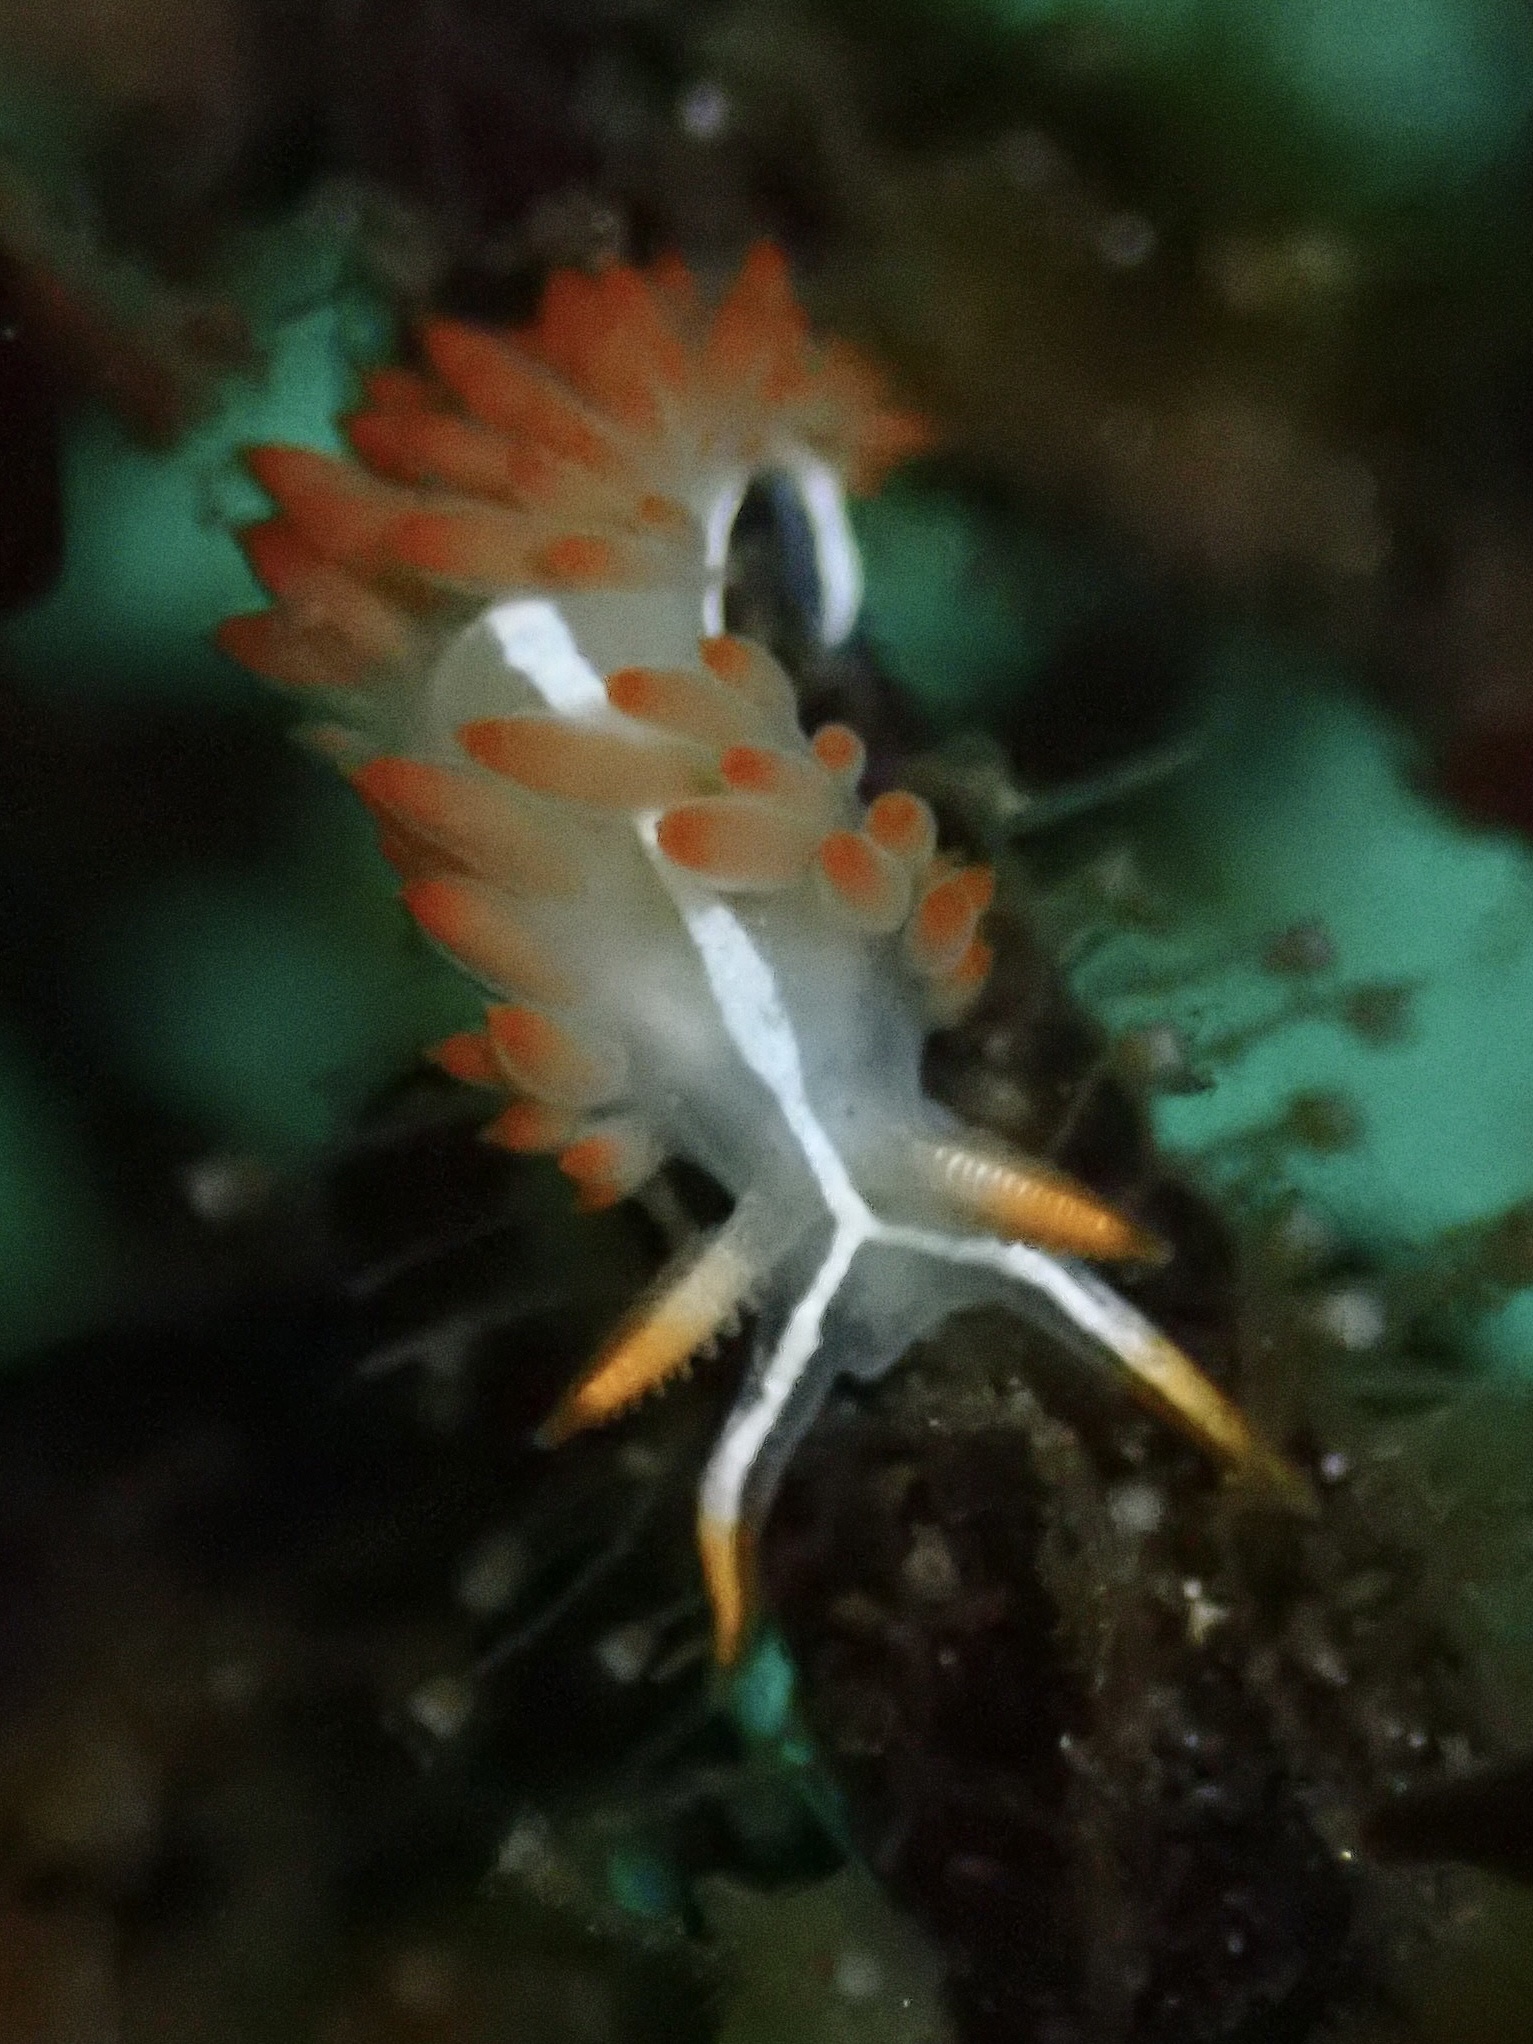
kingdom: Animalia
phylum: Mollusca
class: Gastropoda
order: Nudibranchia
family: Coryphellidae
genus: Coryphella
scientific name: Coryphella trilineata
